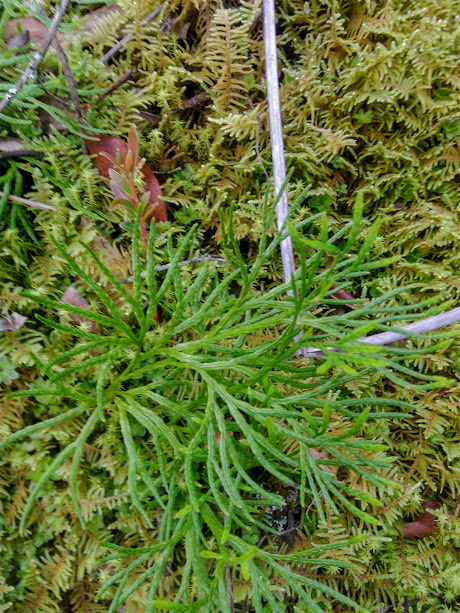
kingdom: Plantae
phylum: Tracheophyta
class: Lycopodiopsida
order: Lycopodiales
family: Lycopodiaceae
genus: Diphasiastrum
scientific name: Diphasiastrum thyoides
